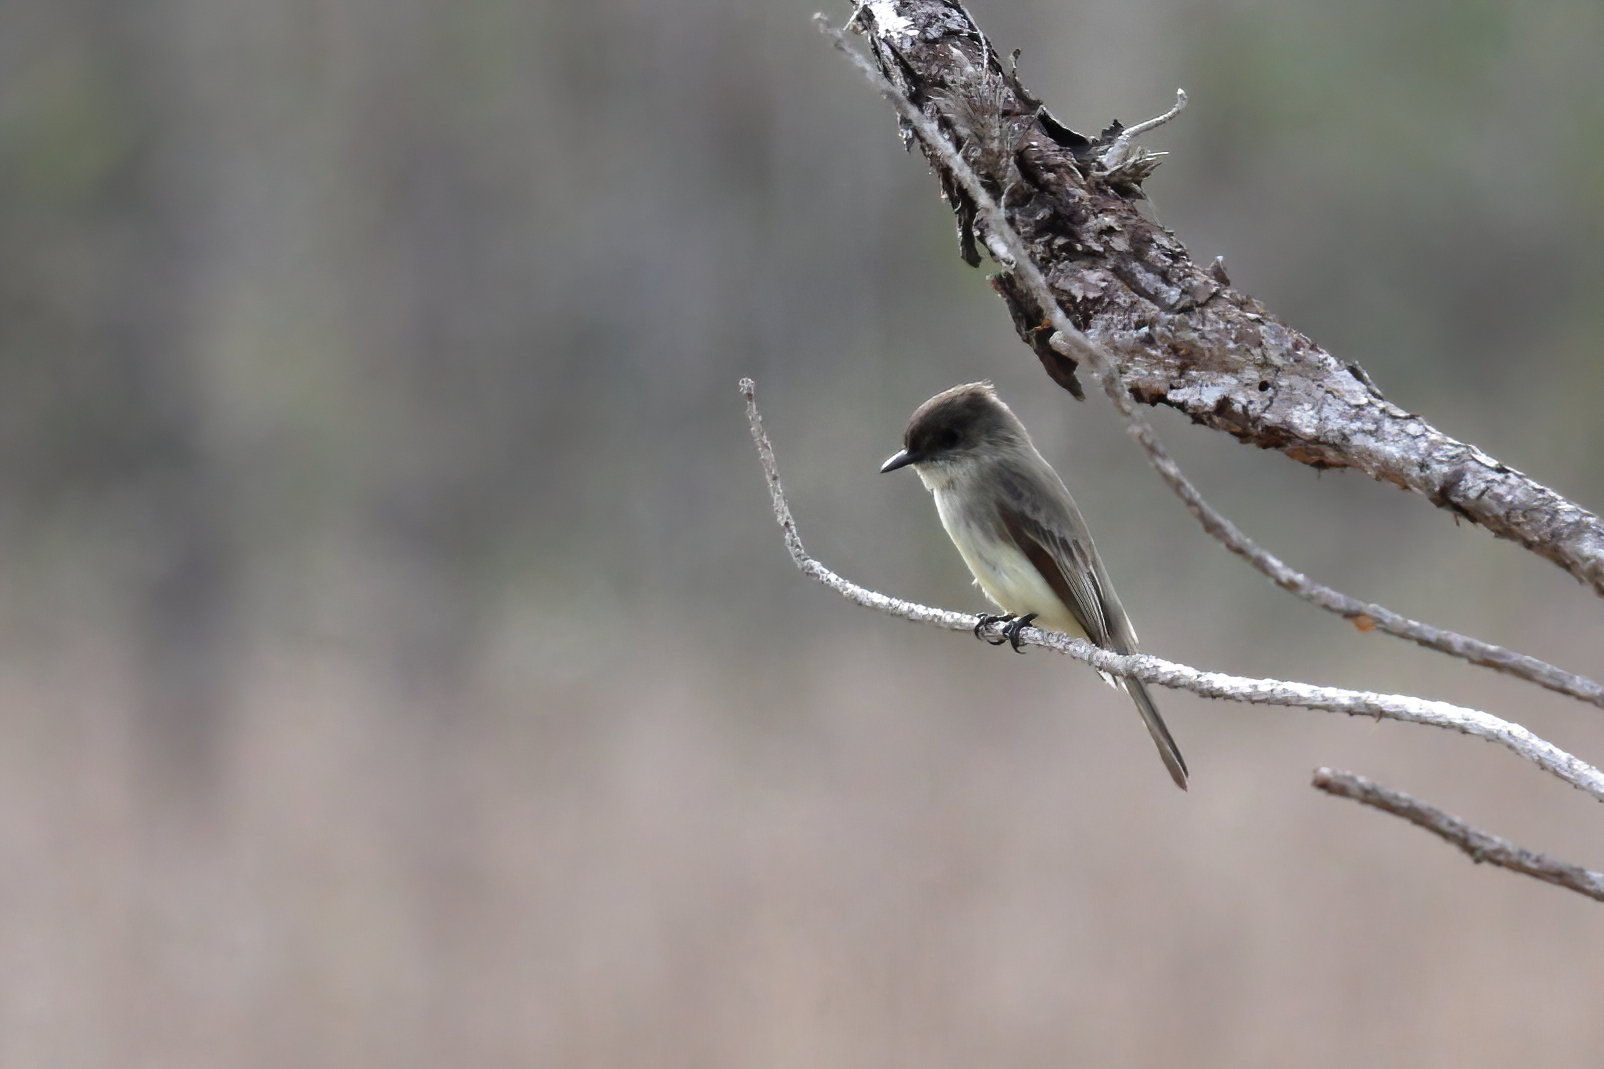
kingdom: Animalia
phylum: Chordata
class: Aves
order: Passeriformes
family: Tyrannidae
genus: Sayornis
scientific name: Sayornis phoebe
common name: Eastern phoebe
